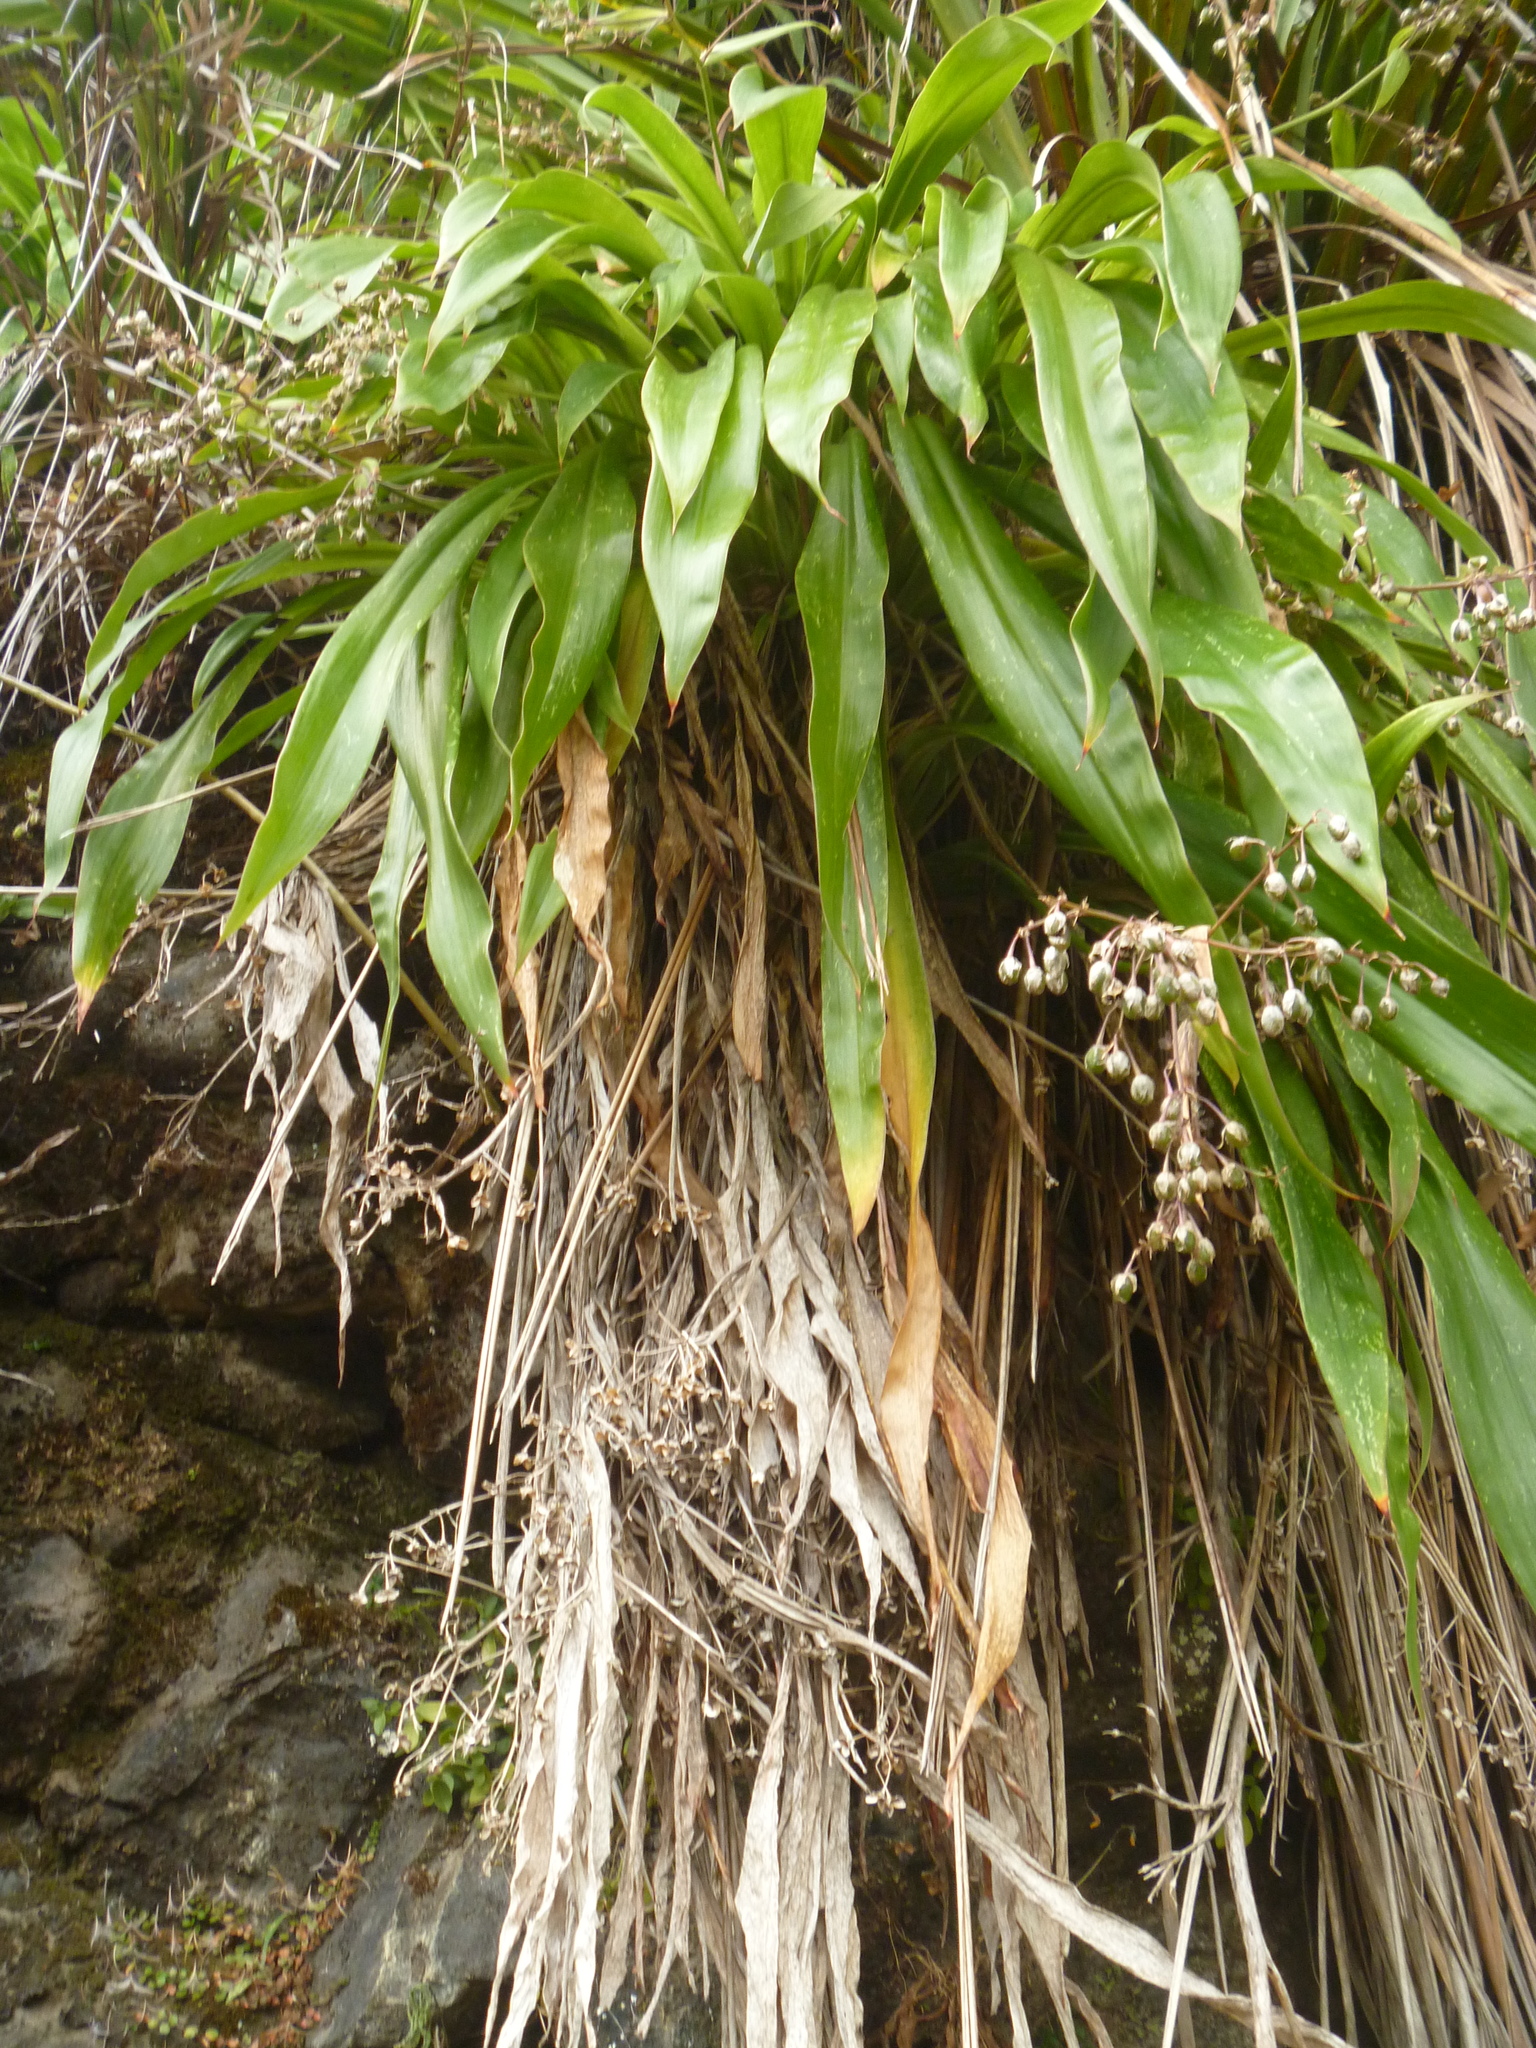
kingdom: Plantae
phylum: Tracheophyta
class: Liliopsida
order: Asparagales
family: Asparagaceae
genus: Arthropodium
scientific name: Arthropodium cirratum
